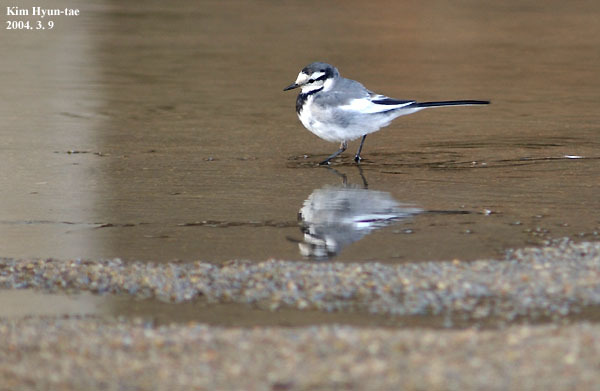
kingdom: Animalia
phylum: Chordata
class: Aves
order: Passeriformes
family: Motacillidae
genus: Motacilla
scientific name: Motacilla alba
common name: White wagtail
